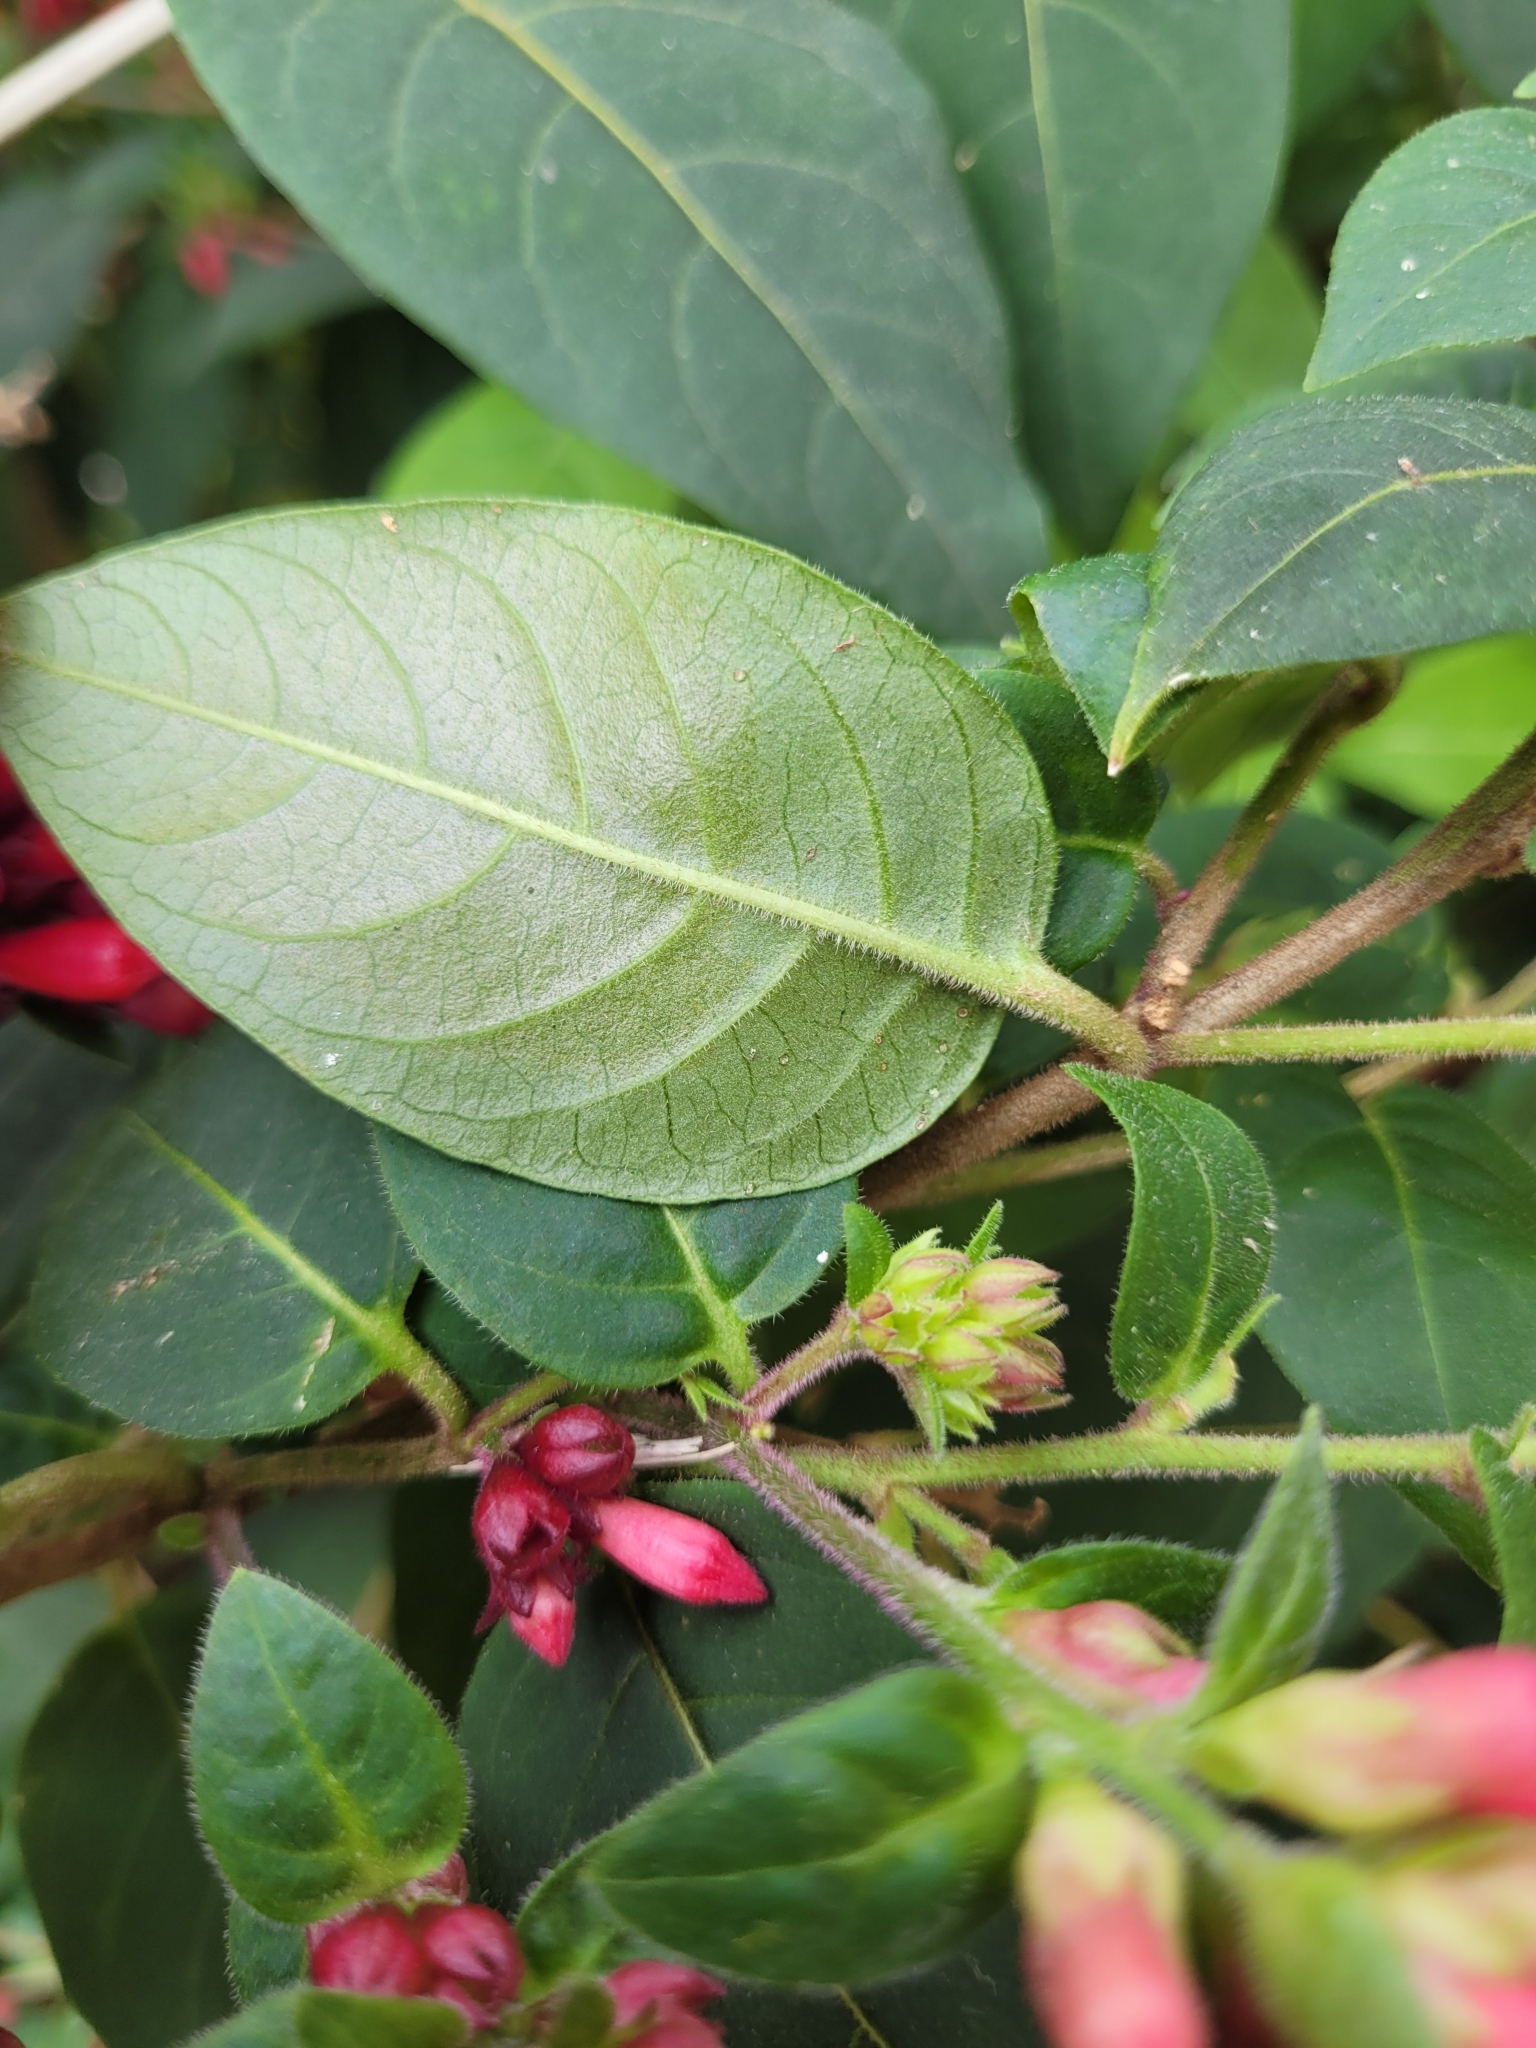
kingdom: Plantae
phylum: Tracheophyta
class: Magnoliopsida
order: Solanales
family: Solanaceae
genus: Cestrum
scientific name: Cestrum fasciculatum
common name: Early jessamine
